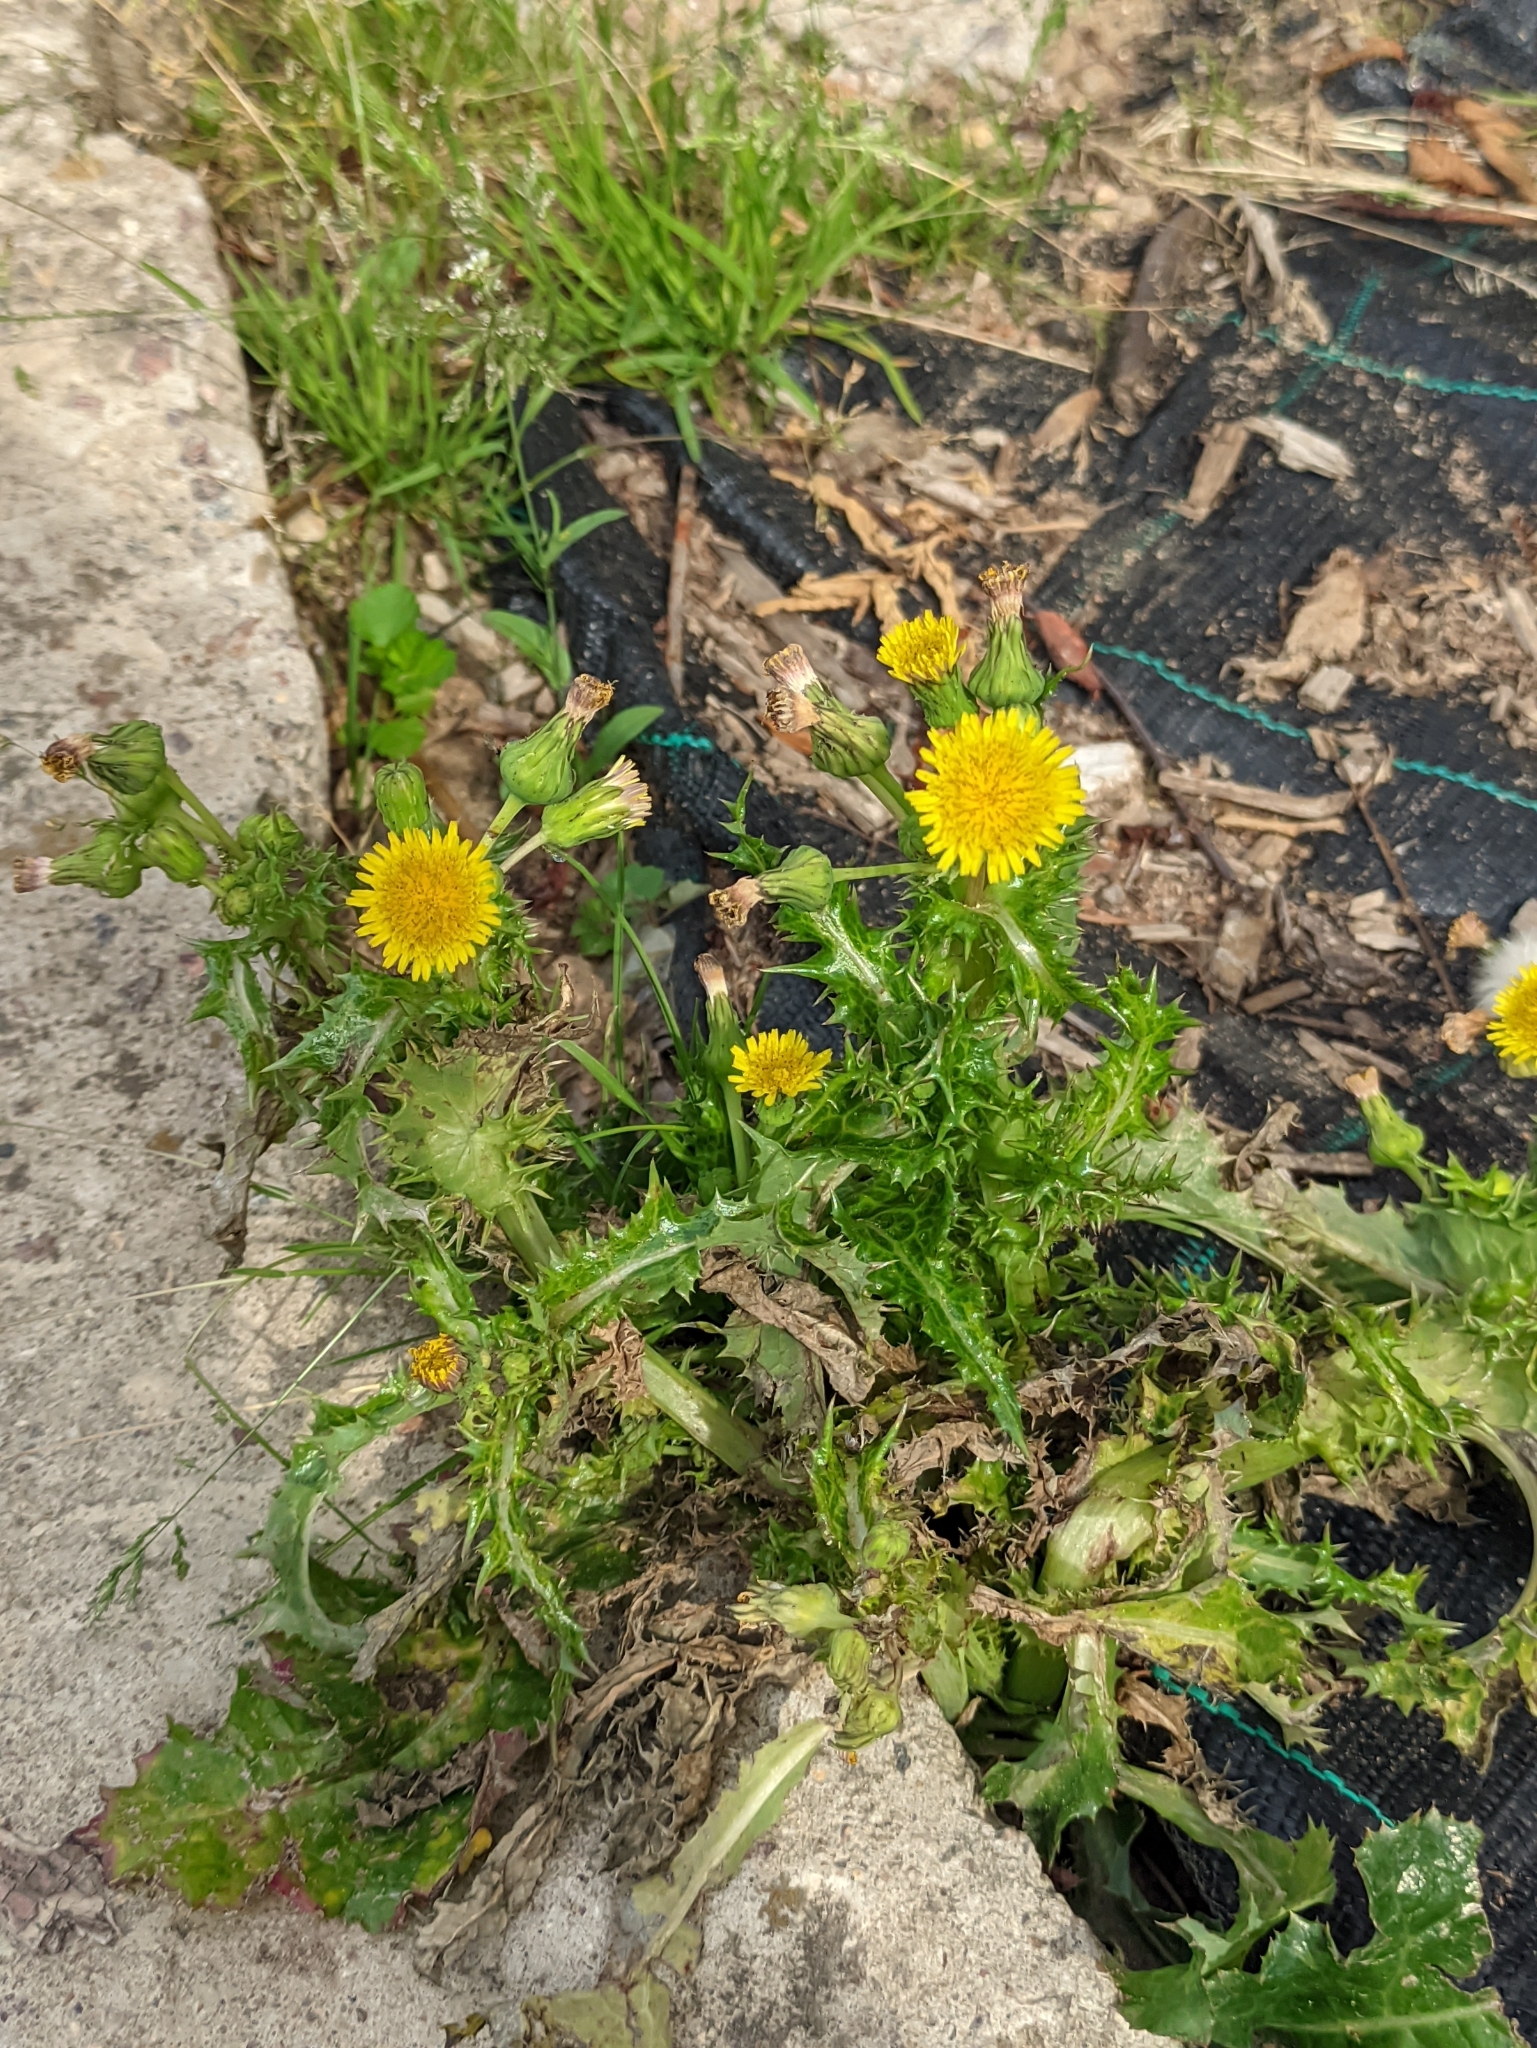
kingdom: Plantae
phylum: Tracheophyta
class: Magnoliopsida
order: Asterales
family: Asteraceae
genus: Sonchus
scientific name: Sonchus asper
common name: Prickly sow-thistle
